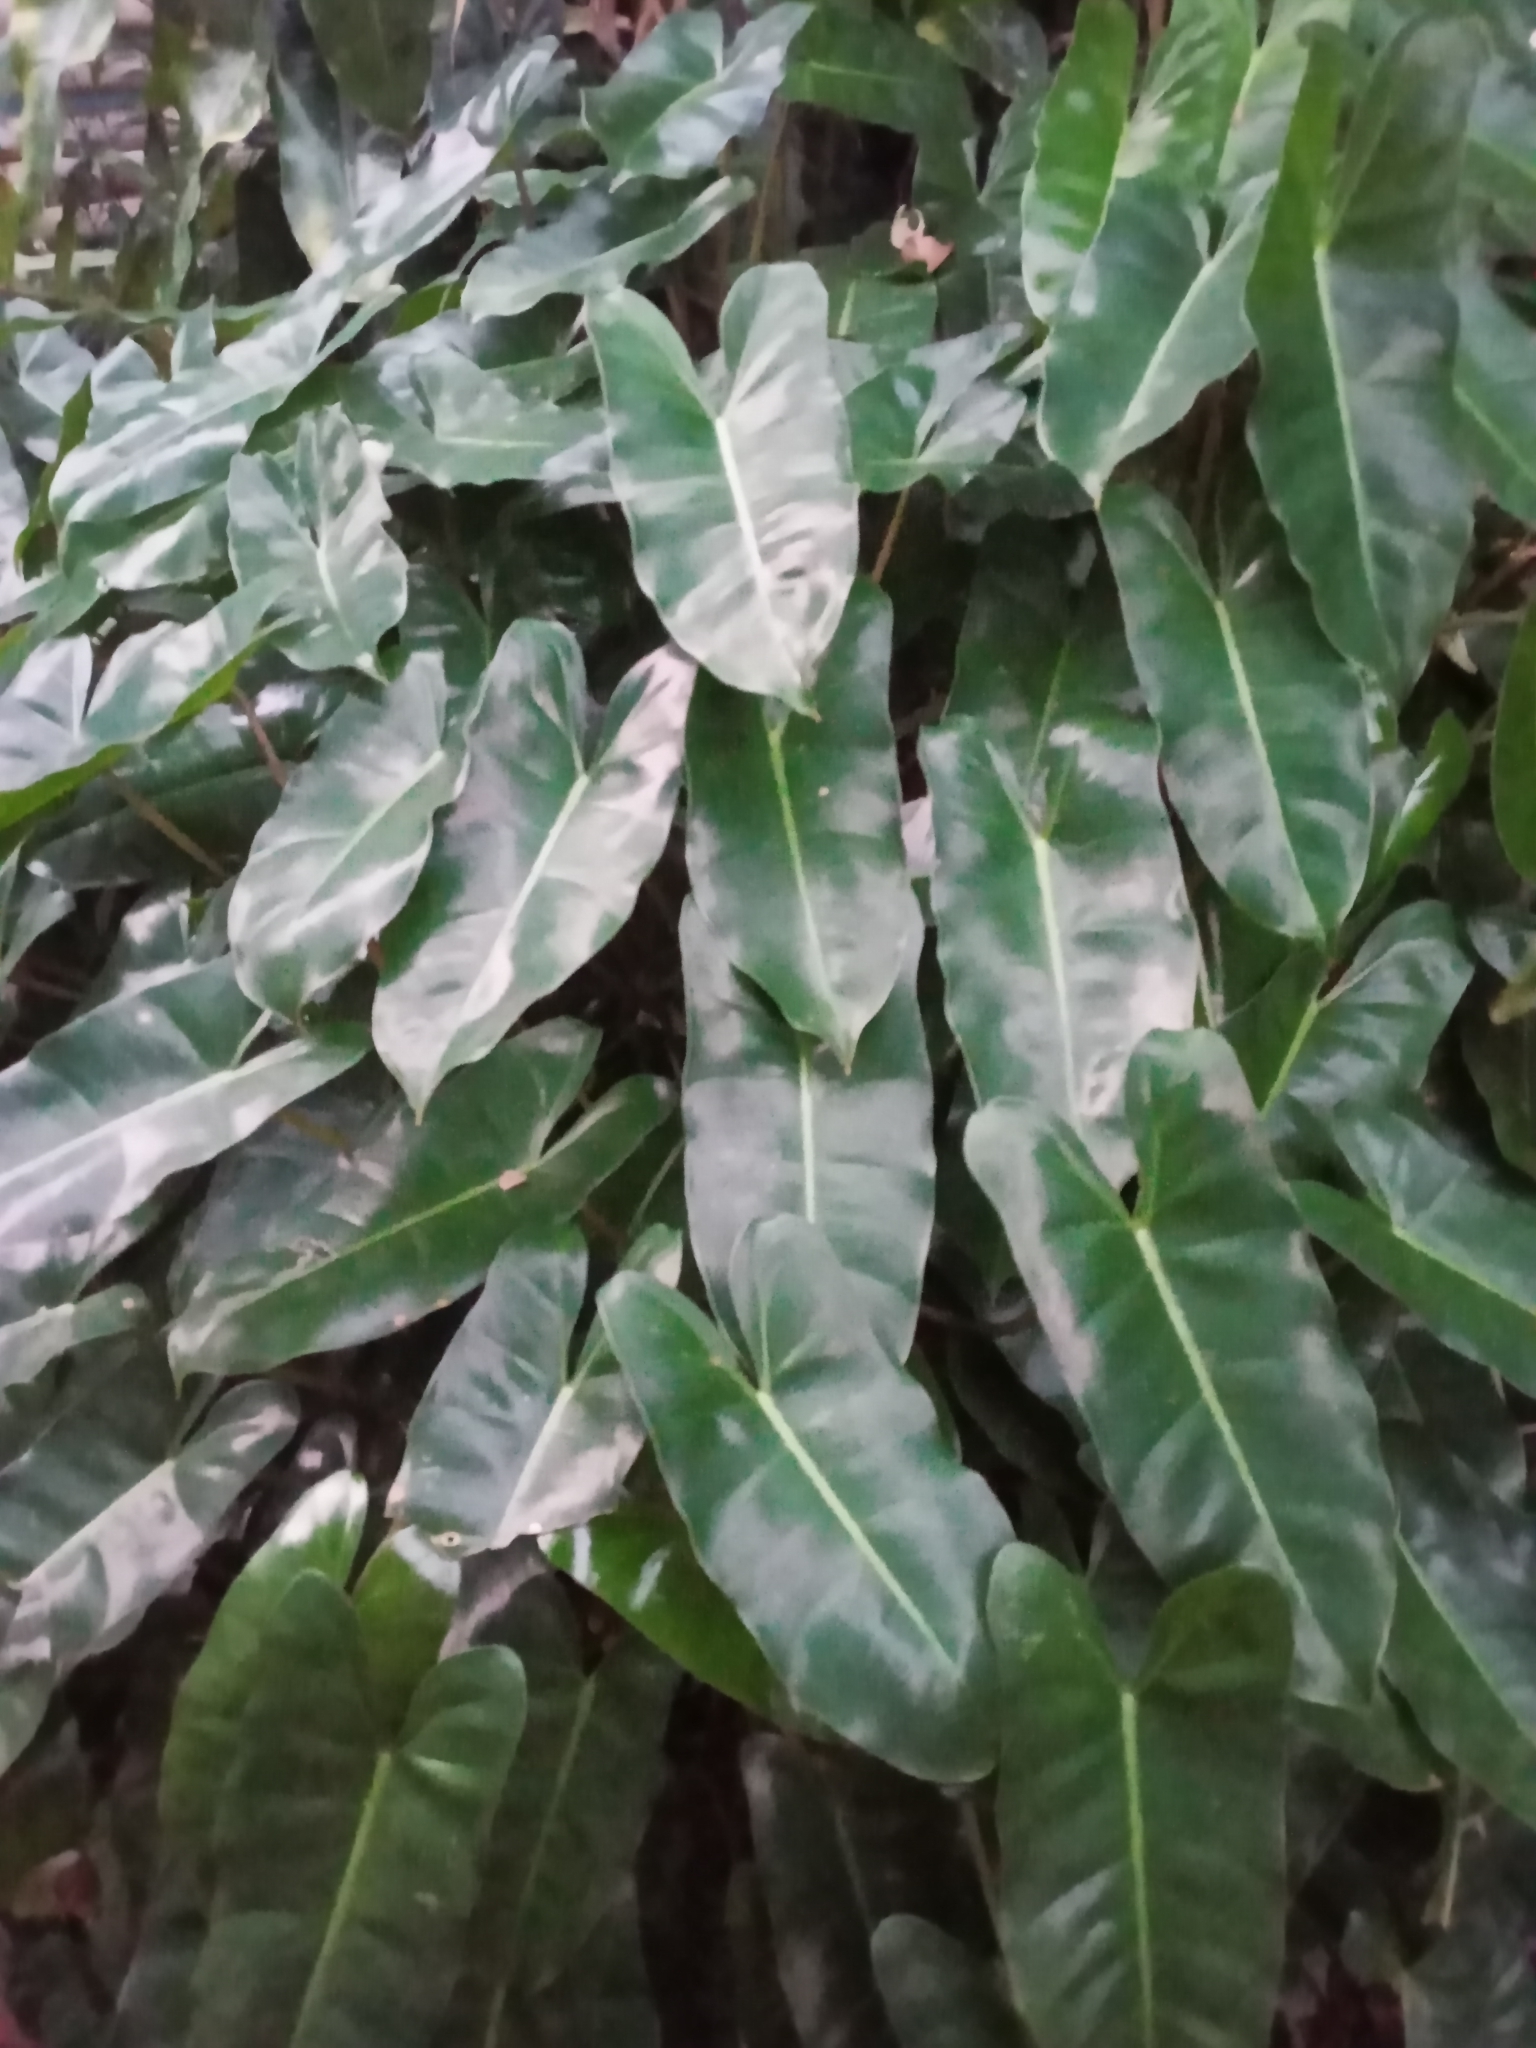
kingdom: Plantae
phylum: Tracheophyta
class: Liliopsida
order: Alismatales
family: Araceae
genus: Philodendron
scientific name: Philodendron burle-marxii
